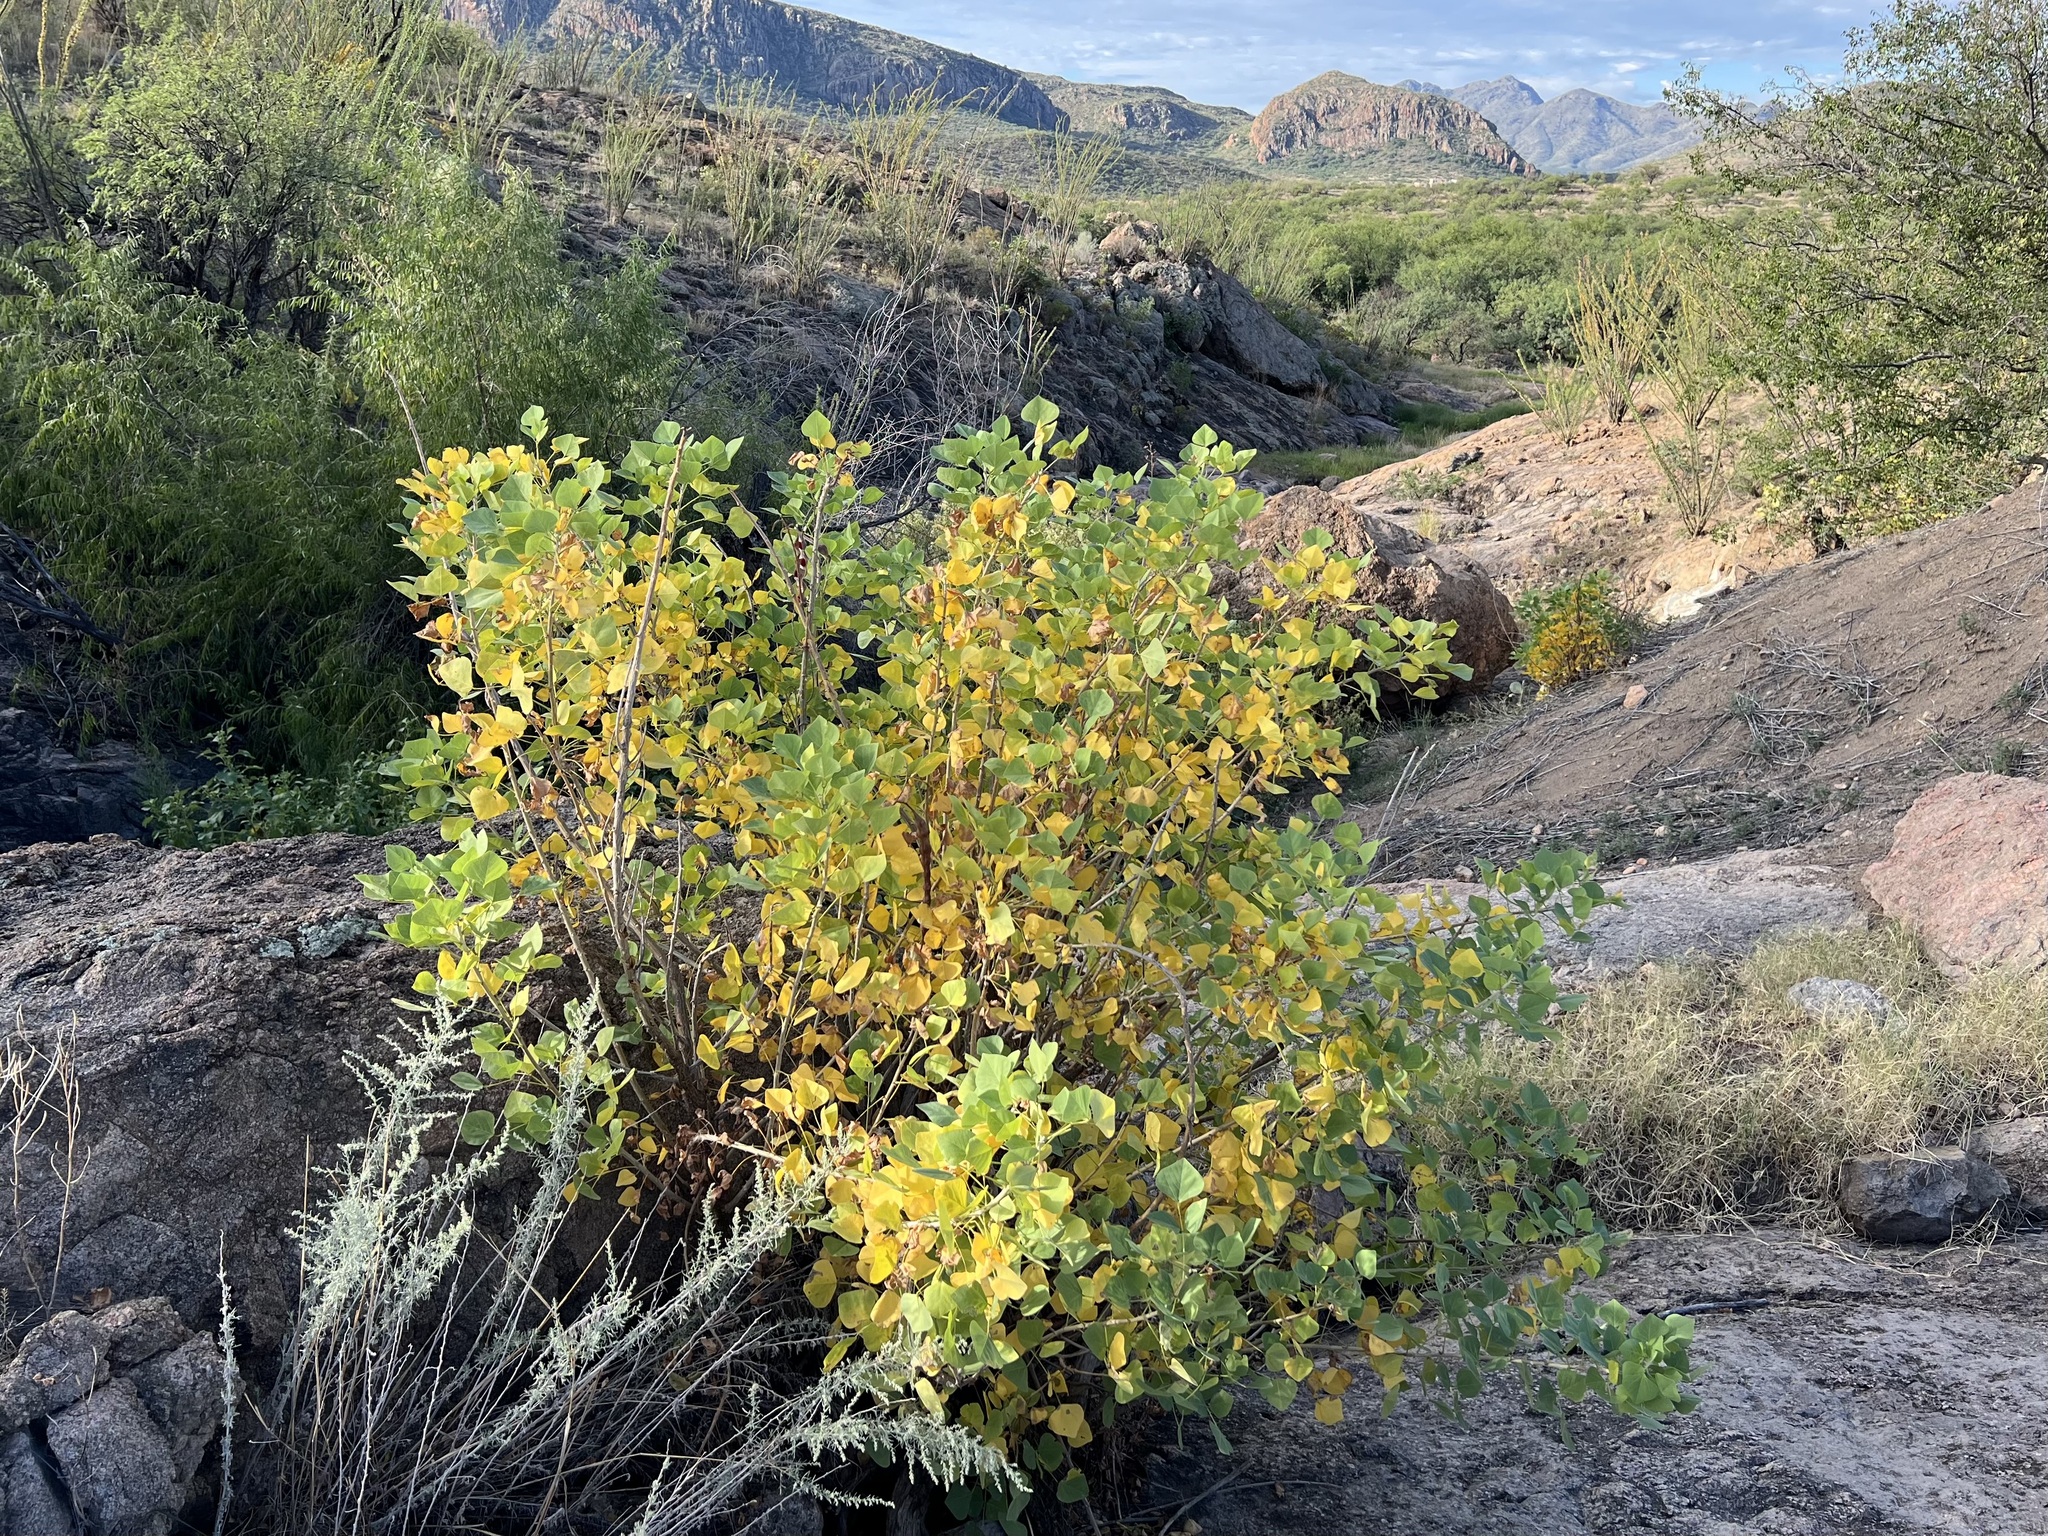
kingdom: Plantae
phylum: Tracheophyta
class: Magnoliopsida
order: Fabales
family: Fabaceae
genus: Erythrina
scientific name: Erythrina flabelliformis
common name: Chilicote
